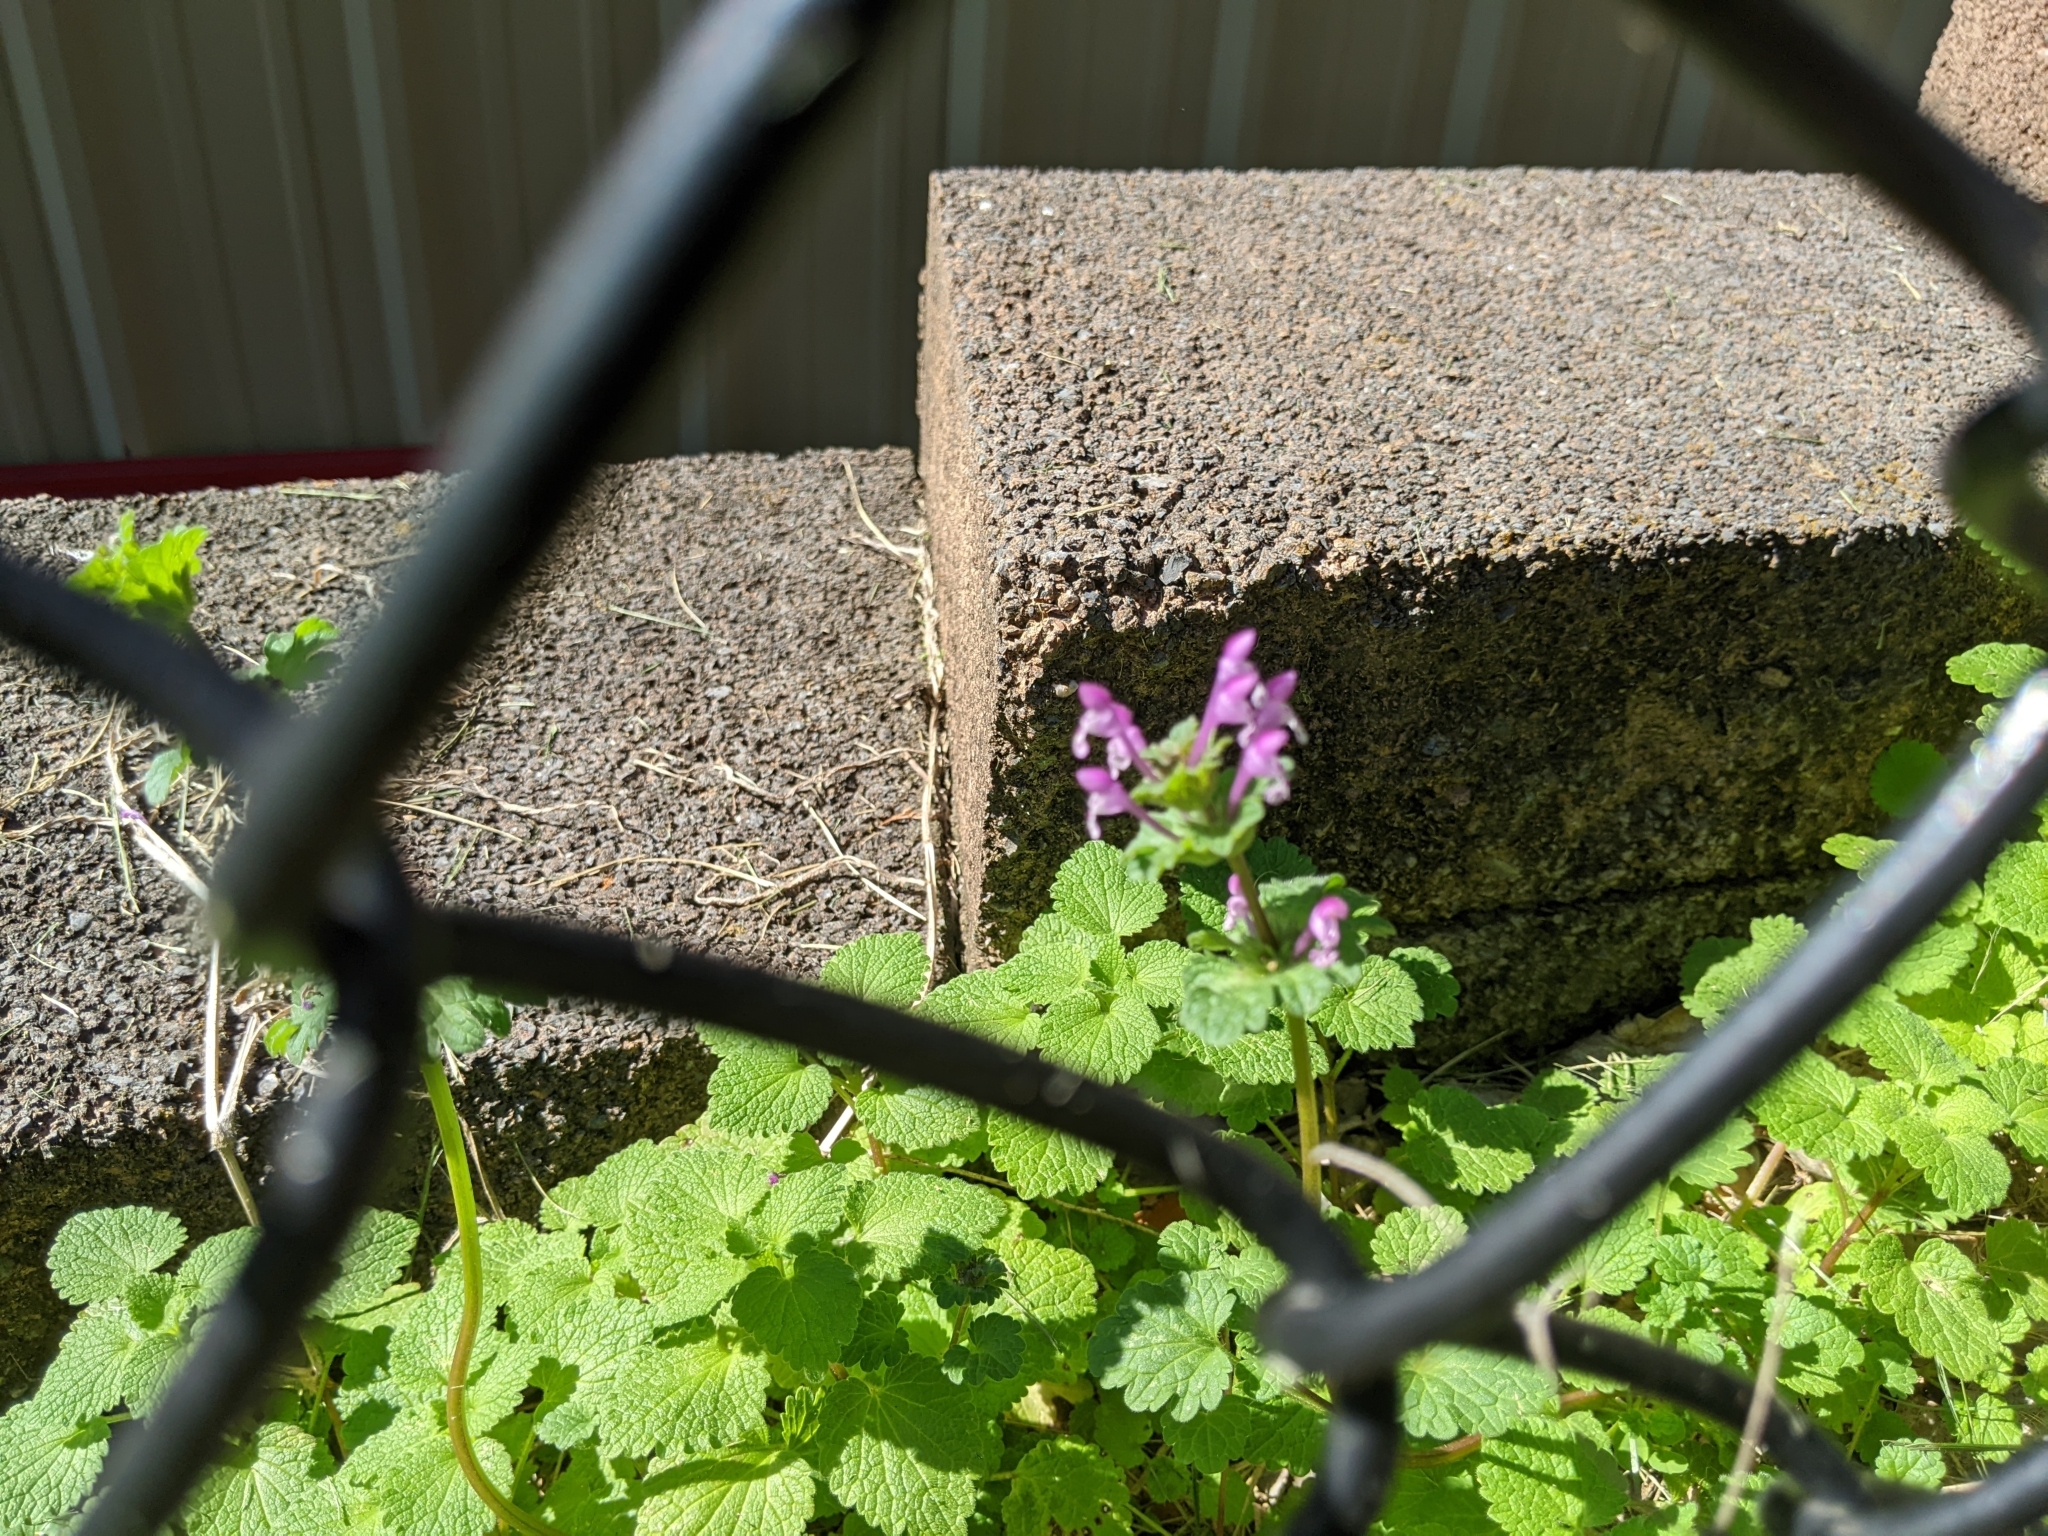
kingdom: Plantae
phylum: Tracheophyta
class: Magnoliopsida
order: Lamiales
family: Lamiaceae
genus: Lamium
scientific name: Lamium
